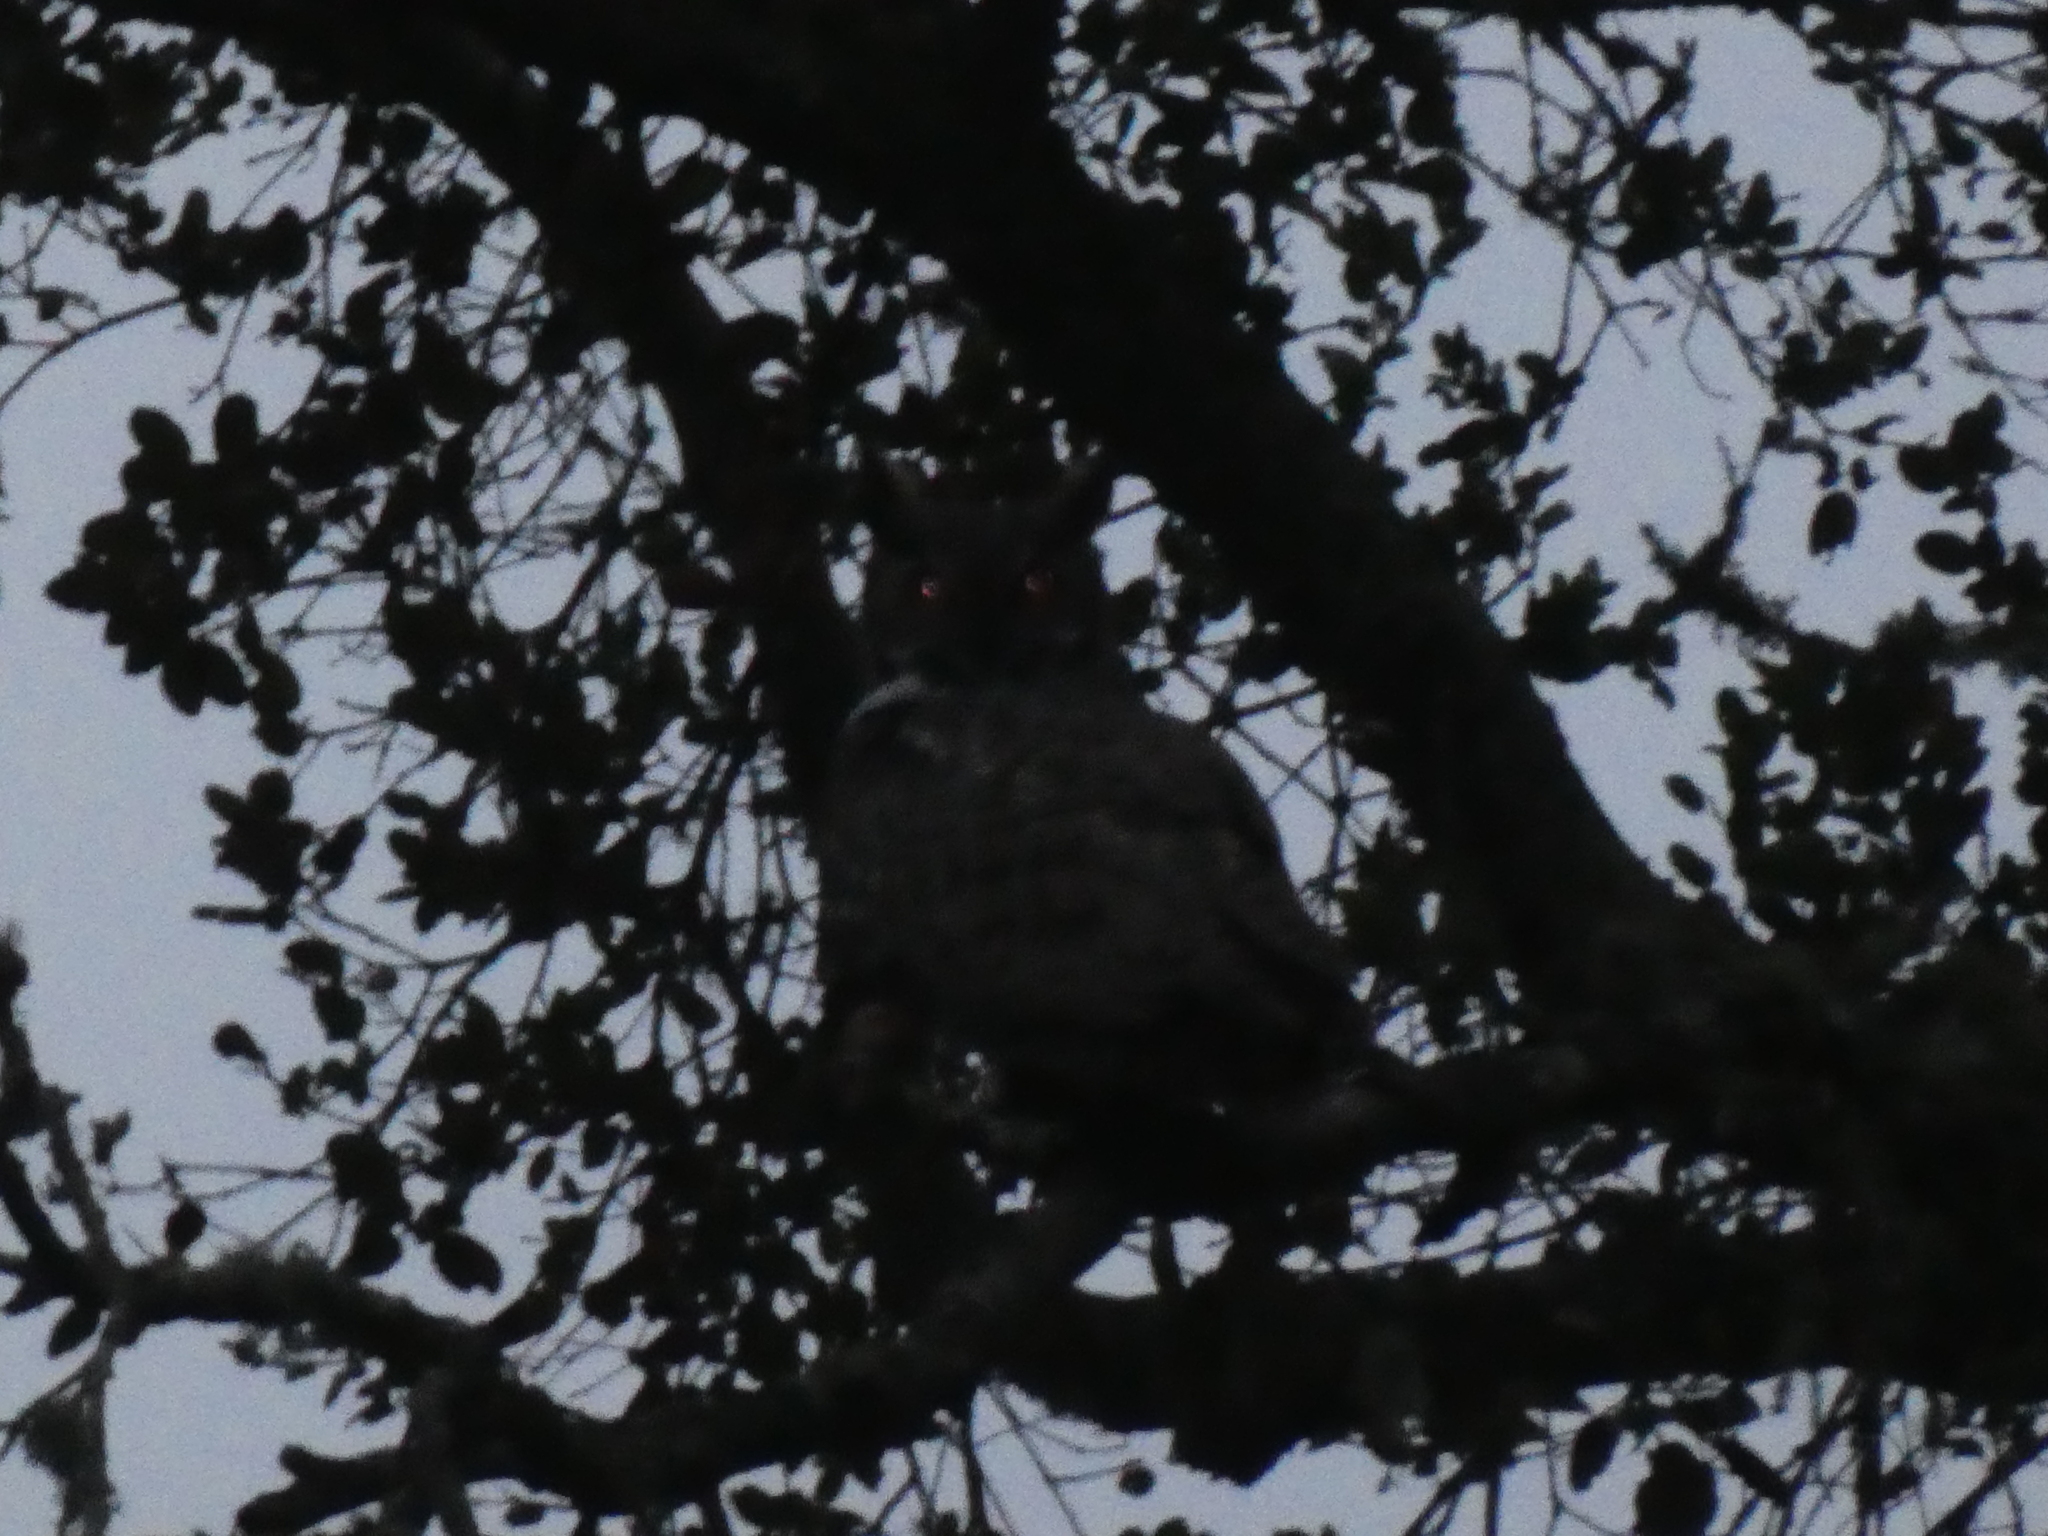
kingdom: Animalia
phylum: Chordata
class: Aves
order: Strigiformes
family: Strigidae
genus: Bubo
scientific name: Bubo virginianus
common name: Great horned owl
